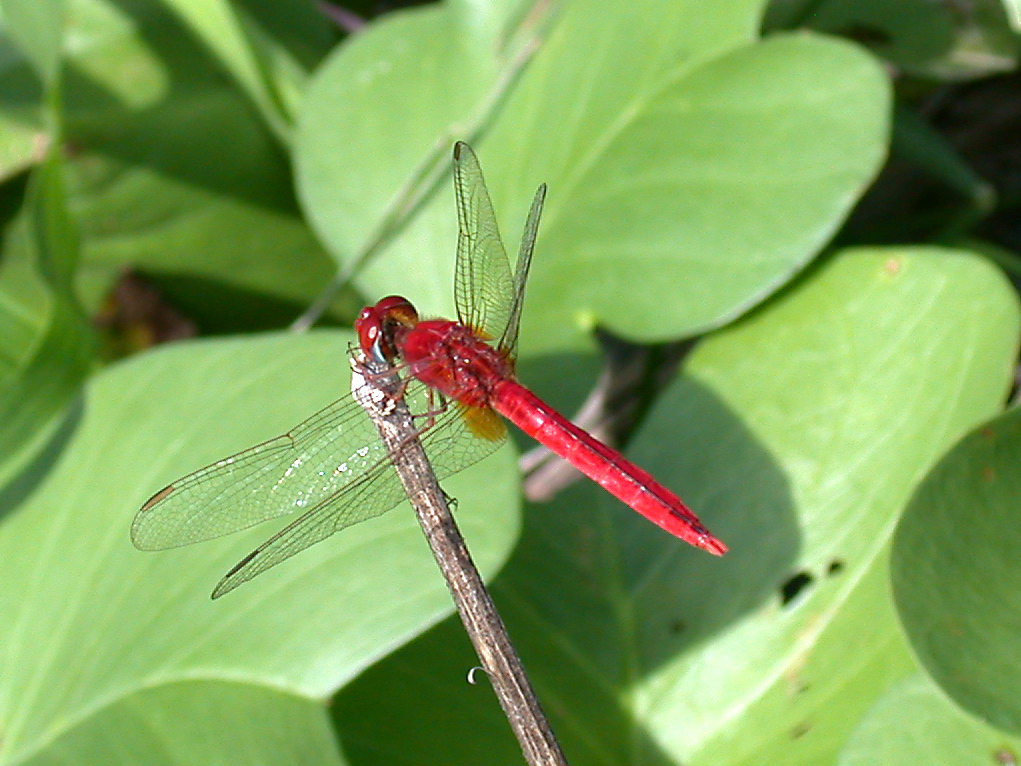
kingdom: Animalia
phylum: Arthropoda
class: Insecta
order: Odonata
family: Libellulidae
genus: Crocothemis
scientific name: Crocothemis servilia
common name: Scarlet skimmer
